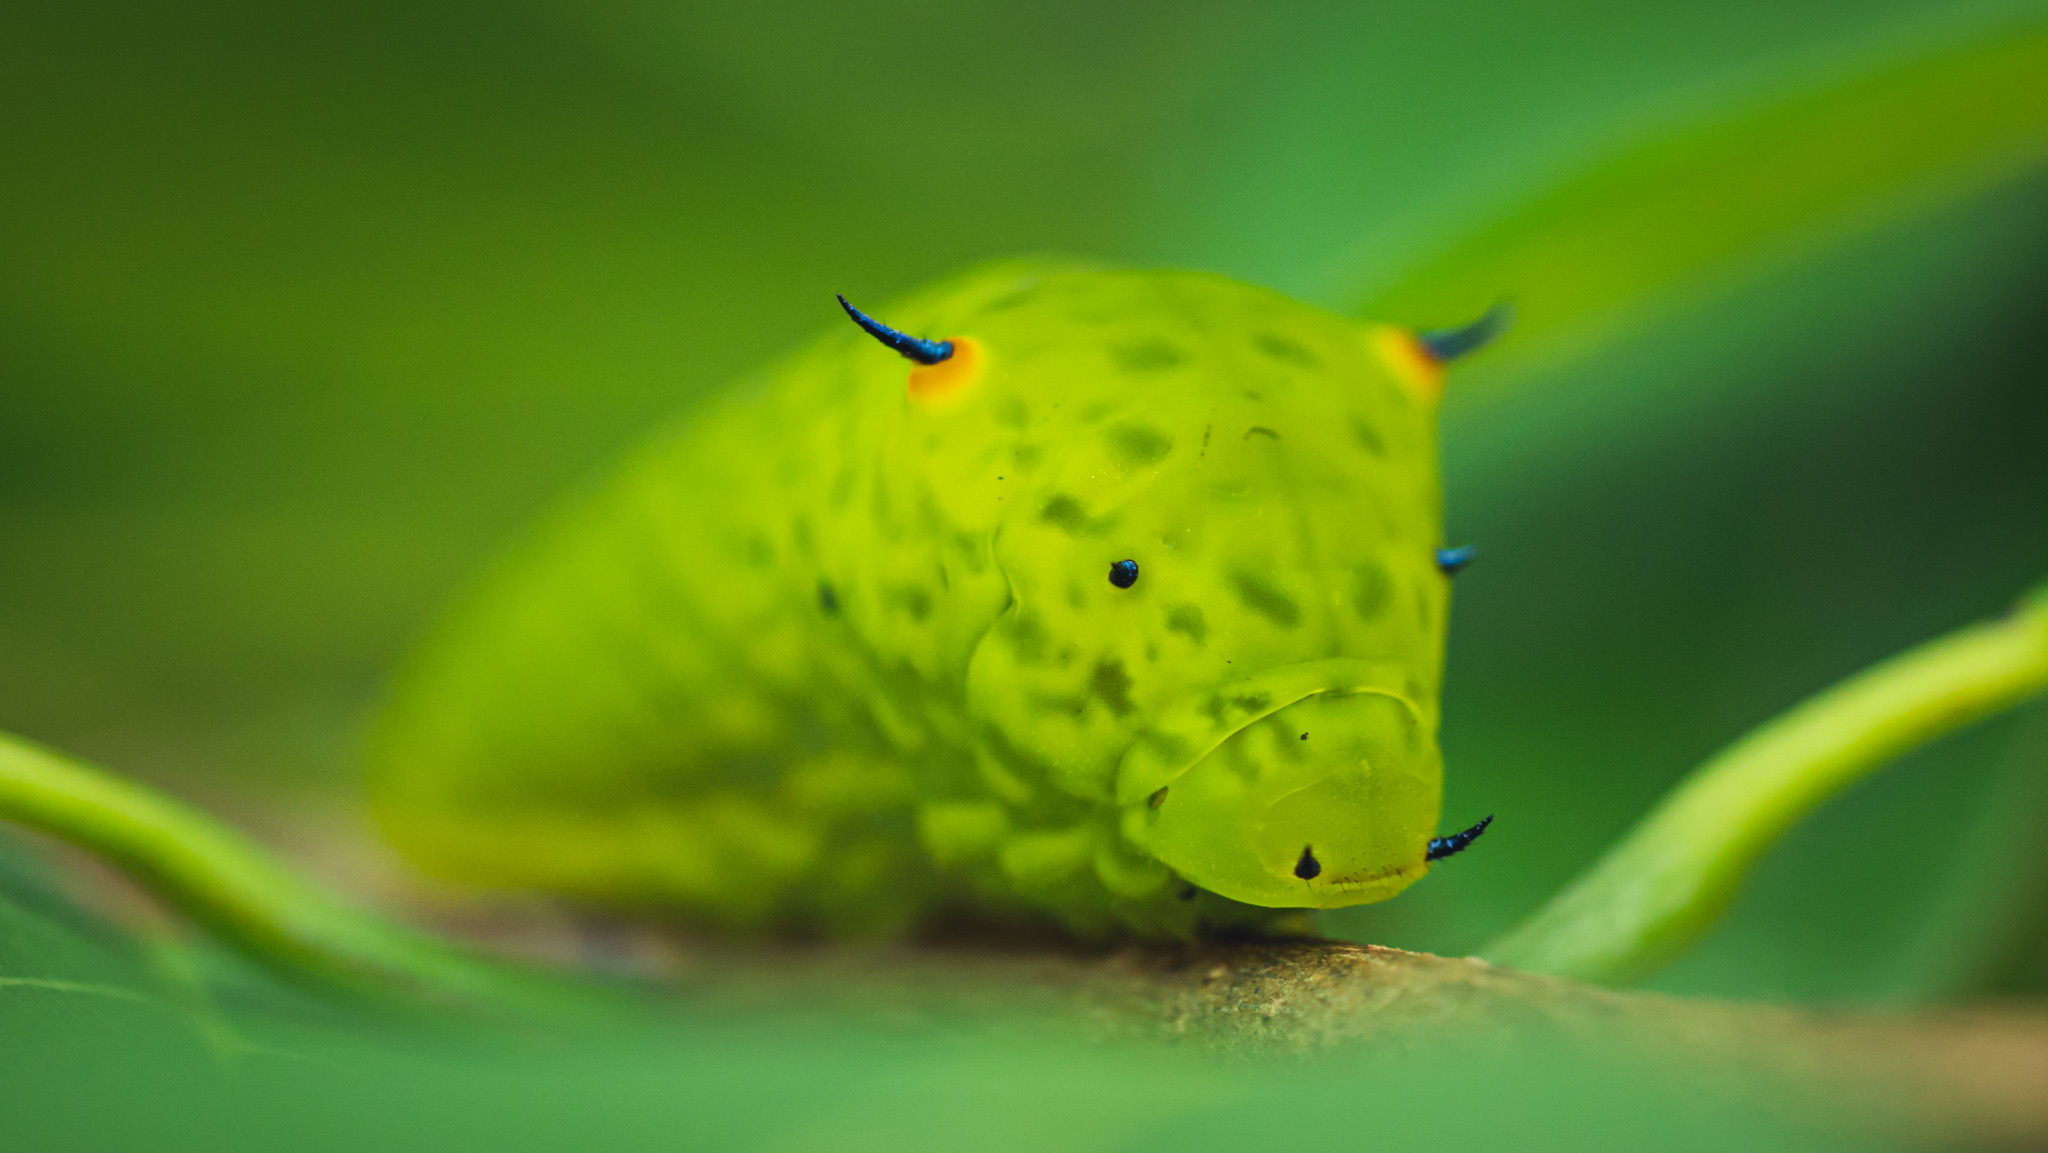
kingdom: Animalia
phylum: Arthropoda
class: Insecta
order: Lepidoptera
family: Papilionidae
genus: Graphium
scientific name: Graphium agamemnon
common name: Tailed jay
